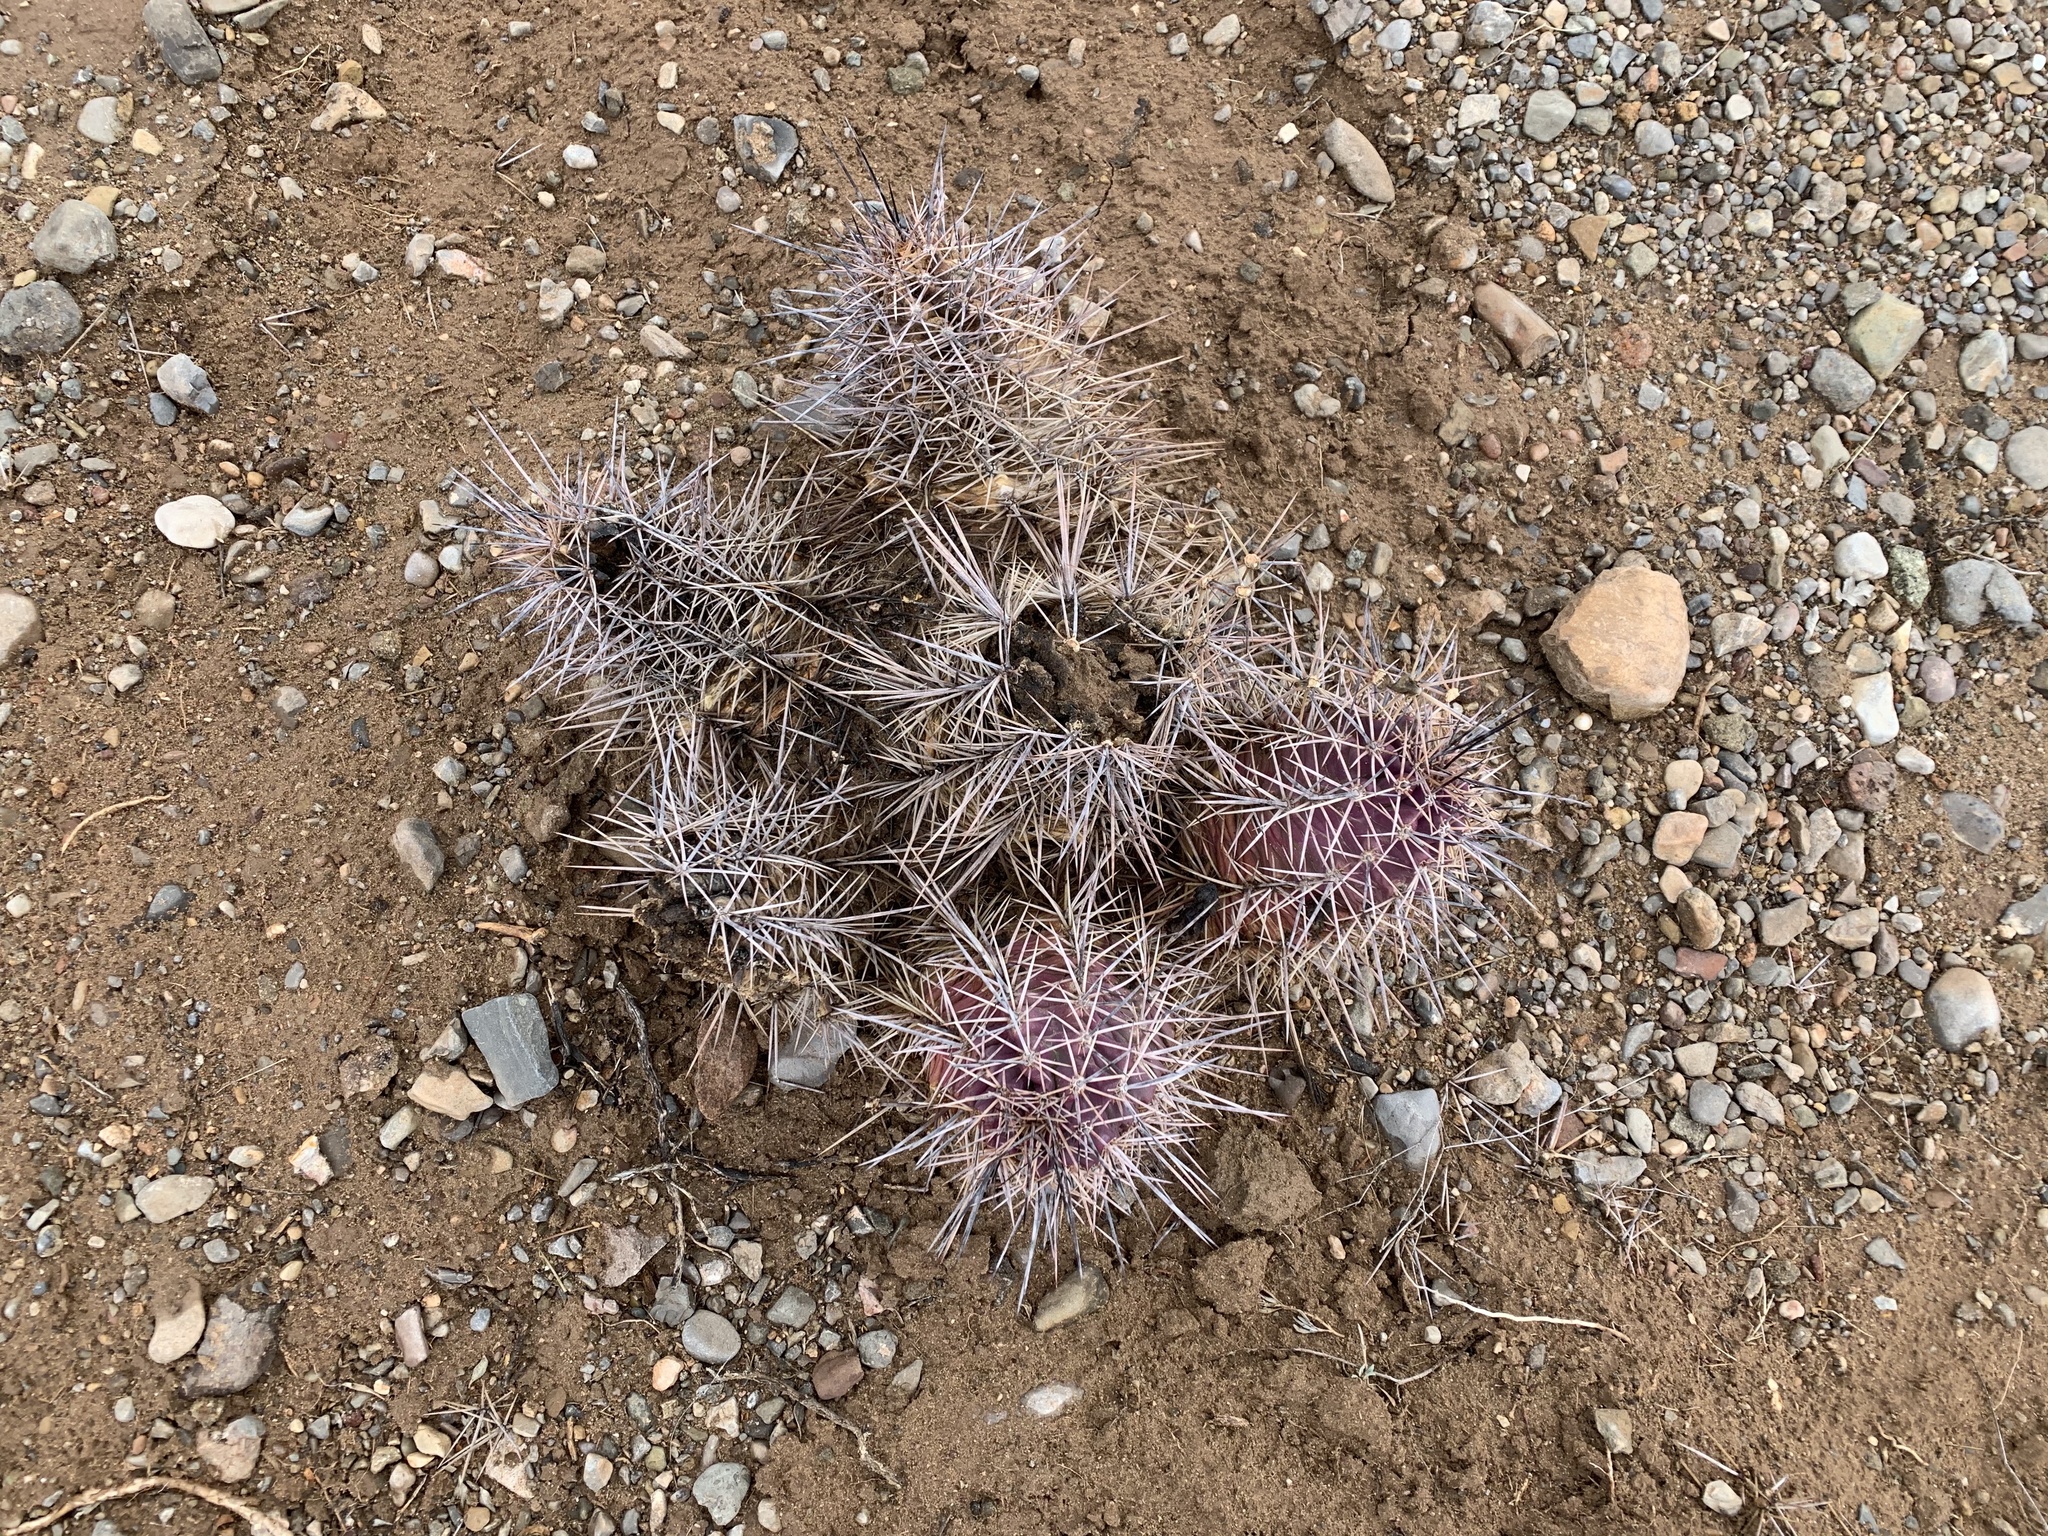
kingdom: Plantae
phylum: Tracheophyta
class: Magnoliopsida
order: Caryophyllales
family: Cactaceae
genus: Echinocereus
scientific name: Echinocereus coccineus
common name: Scarlet hedgehog cactus
